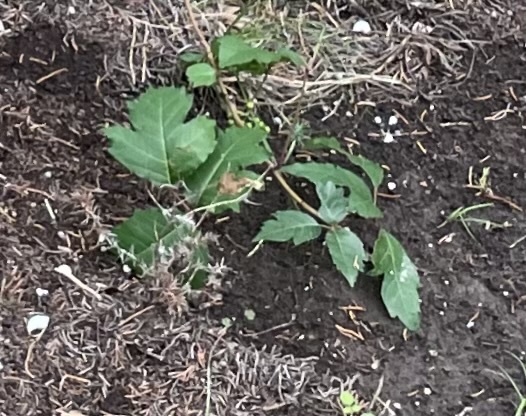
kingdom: Plantae
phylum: Tracheophyta
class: Magnoliopsida
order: Sapindales
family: Anacardiaceae
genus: Toxicodendron
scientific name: Toxicodendron radicans
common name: Poison ivy
